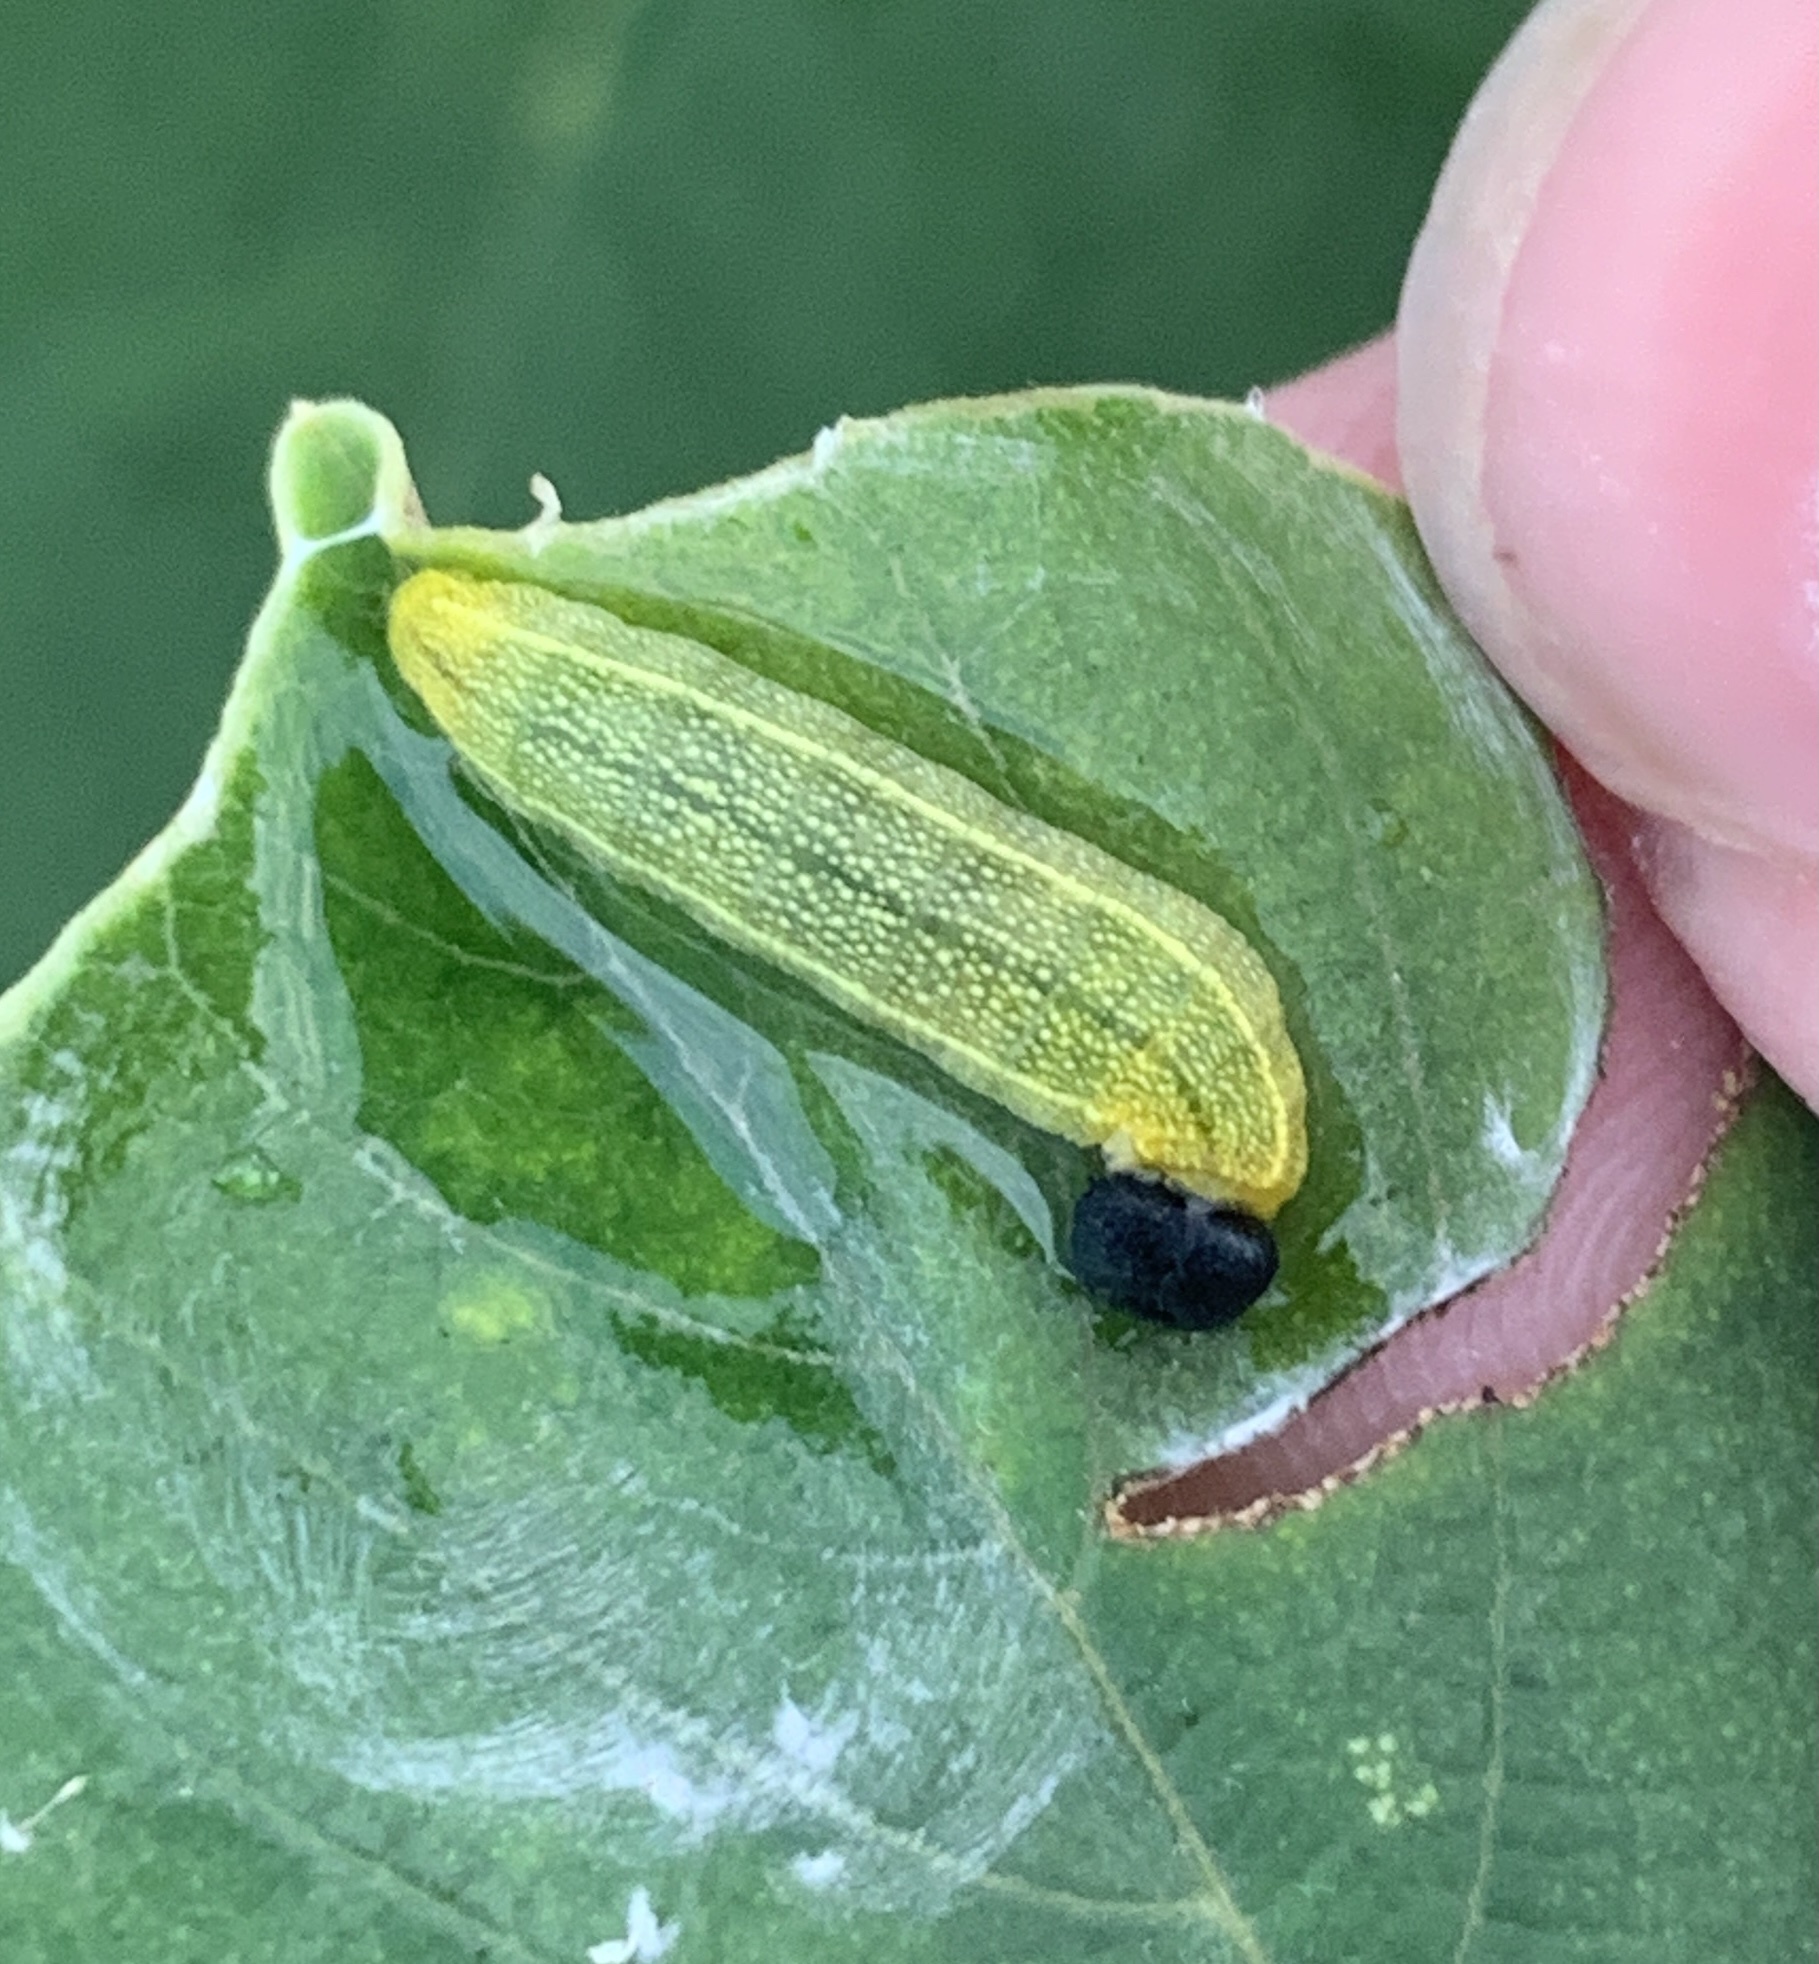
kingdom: Animalia
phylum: Arthropoda
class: Insecta
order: Lepidoptera
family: Hesperiidae
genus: Polygonus
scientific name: Polygonus leo
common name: Hammoch skipper
